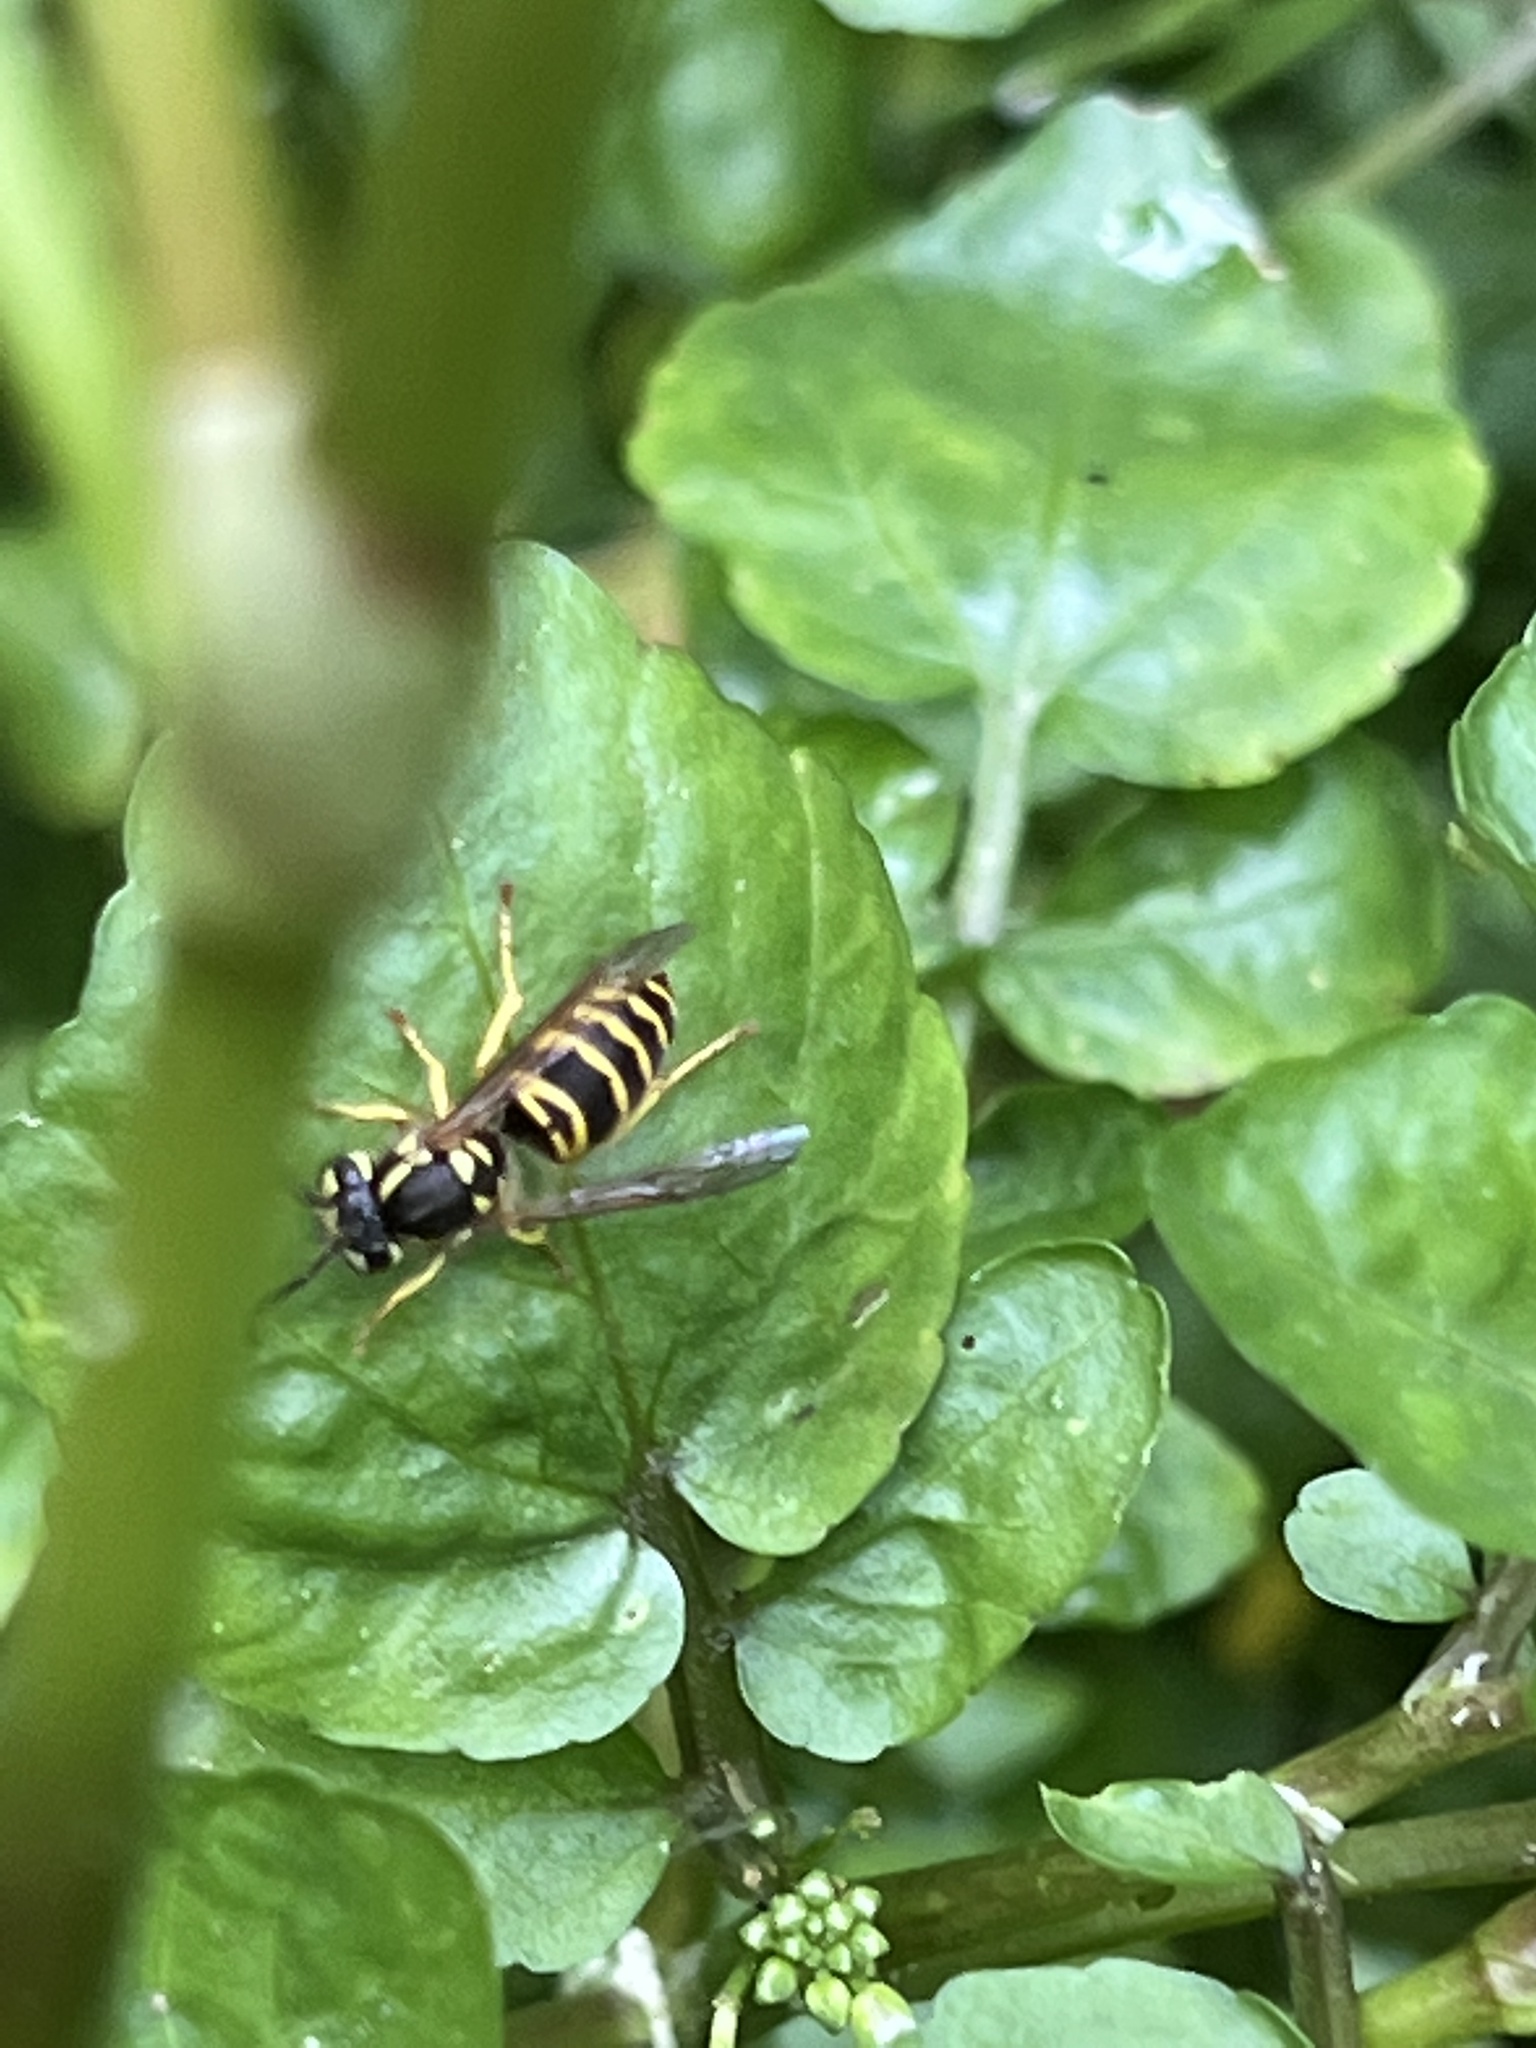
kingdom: Animalia
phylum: Arthropoda
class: Insecta
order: Hymenoptera
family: Vespidae
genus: Vespula
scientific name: Vespula maculifrons
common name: Eastern yellowjacket
